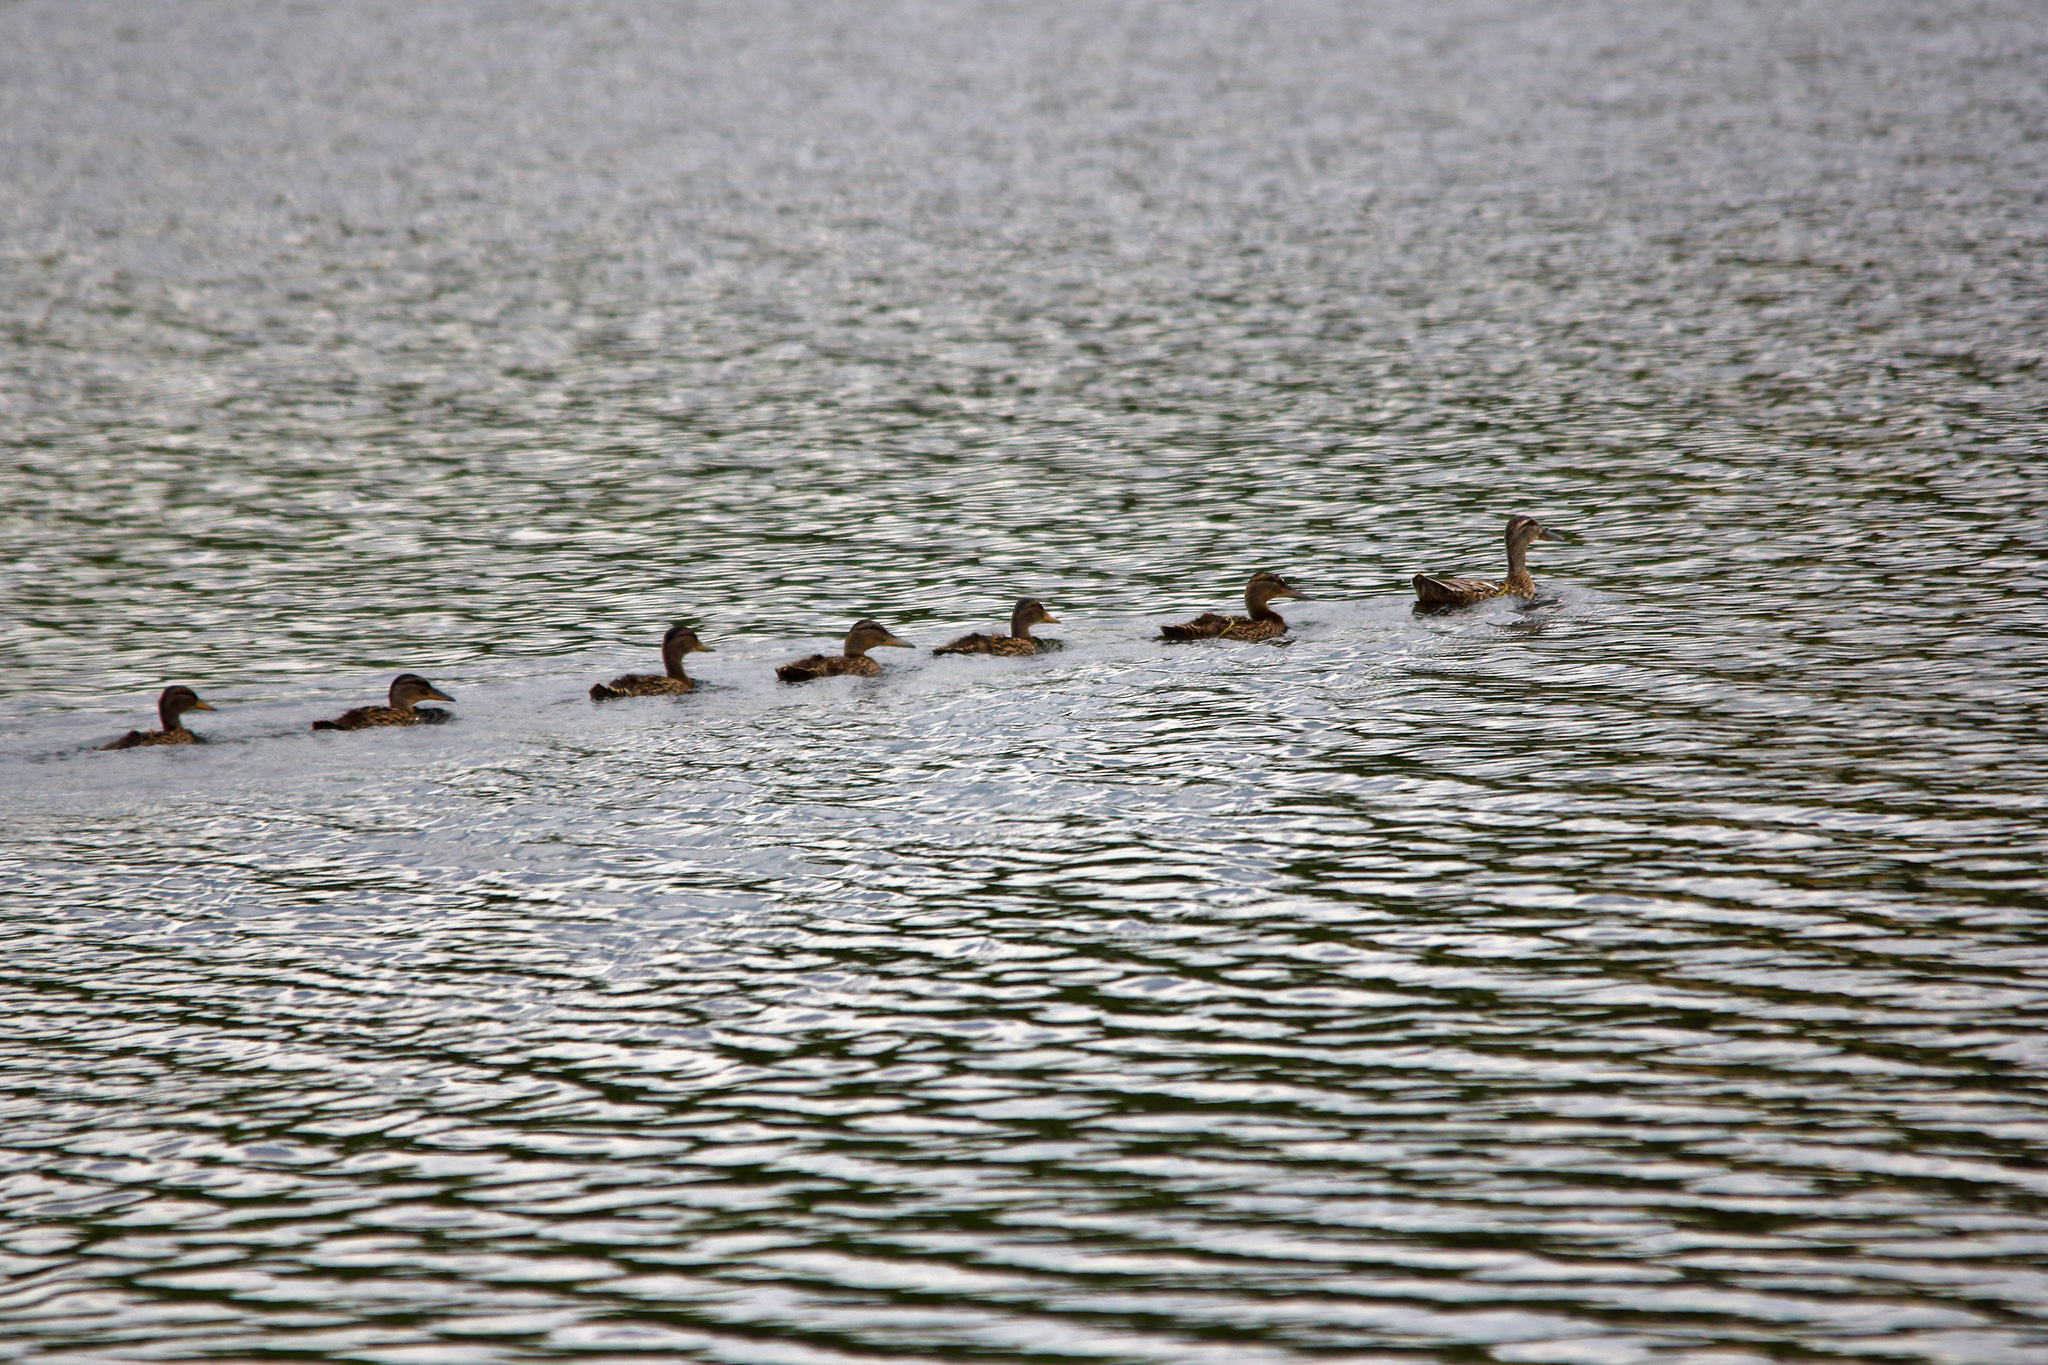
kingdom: Animalia
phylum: Chordata
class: Aves
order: Anseriformes
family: Anatidae
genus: Anas
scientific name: Anas platyrhynchos
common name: Mallard
